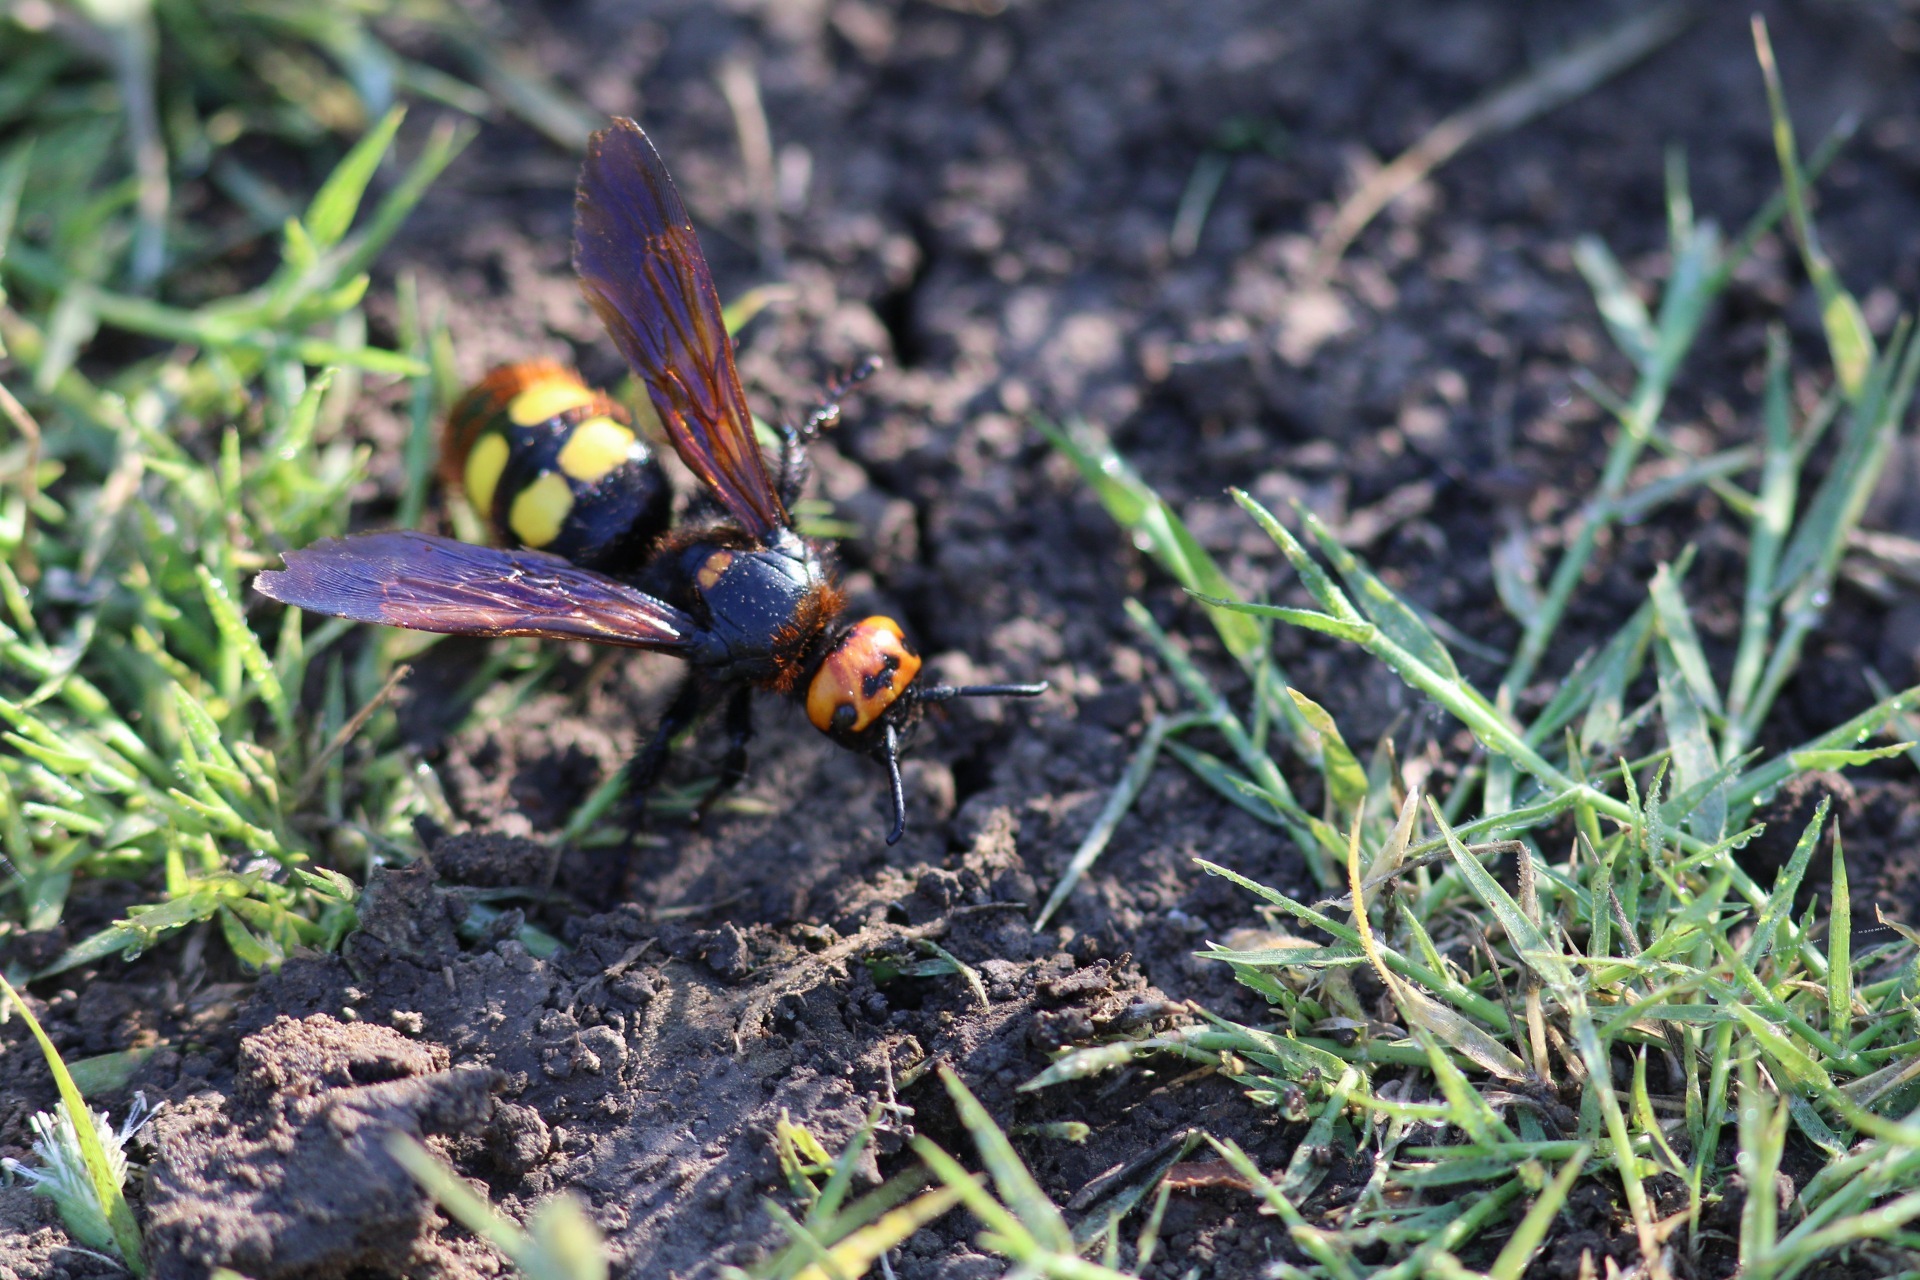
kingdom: Animalia
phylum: Arthropoda
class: Insecta
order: Hymenoptera
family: Scoliidae
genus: Megascolia
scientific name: Megascolia maculata
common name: Mammoth wasp
